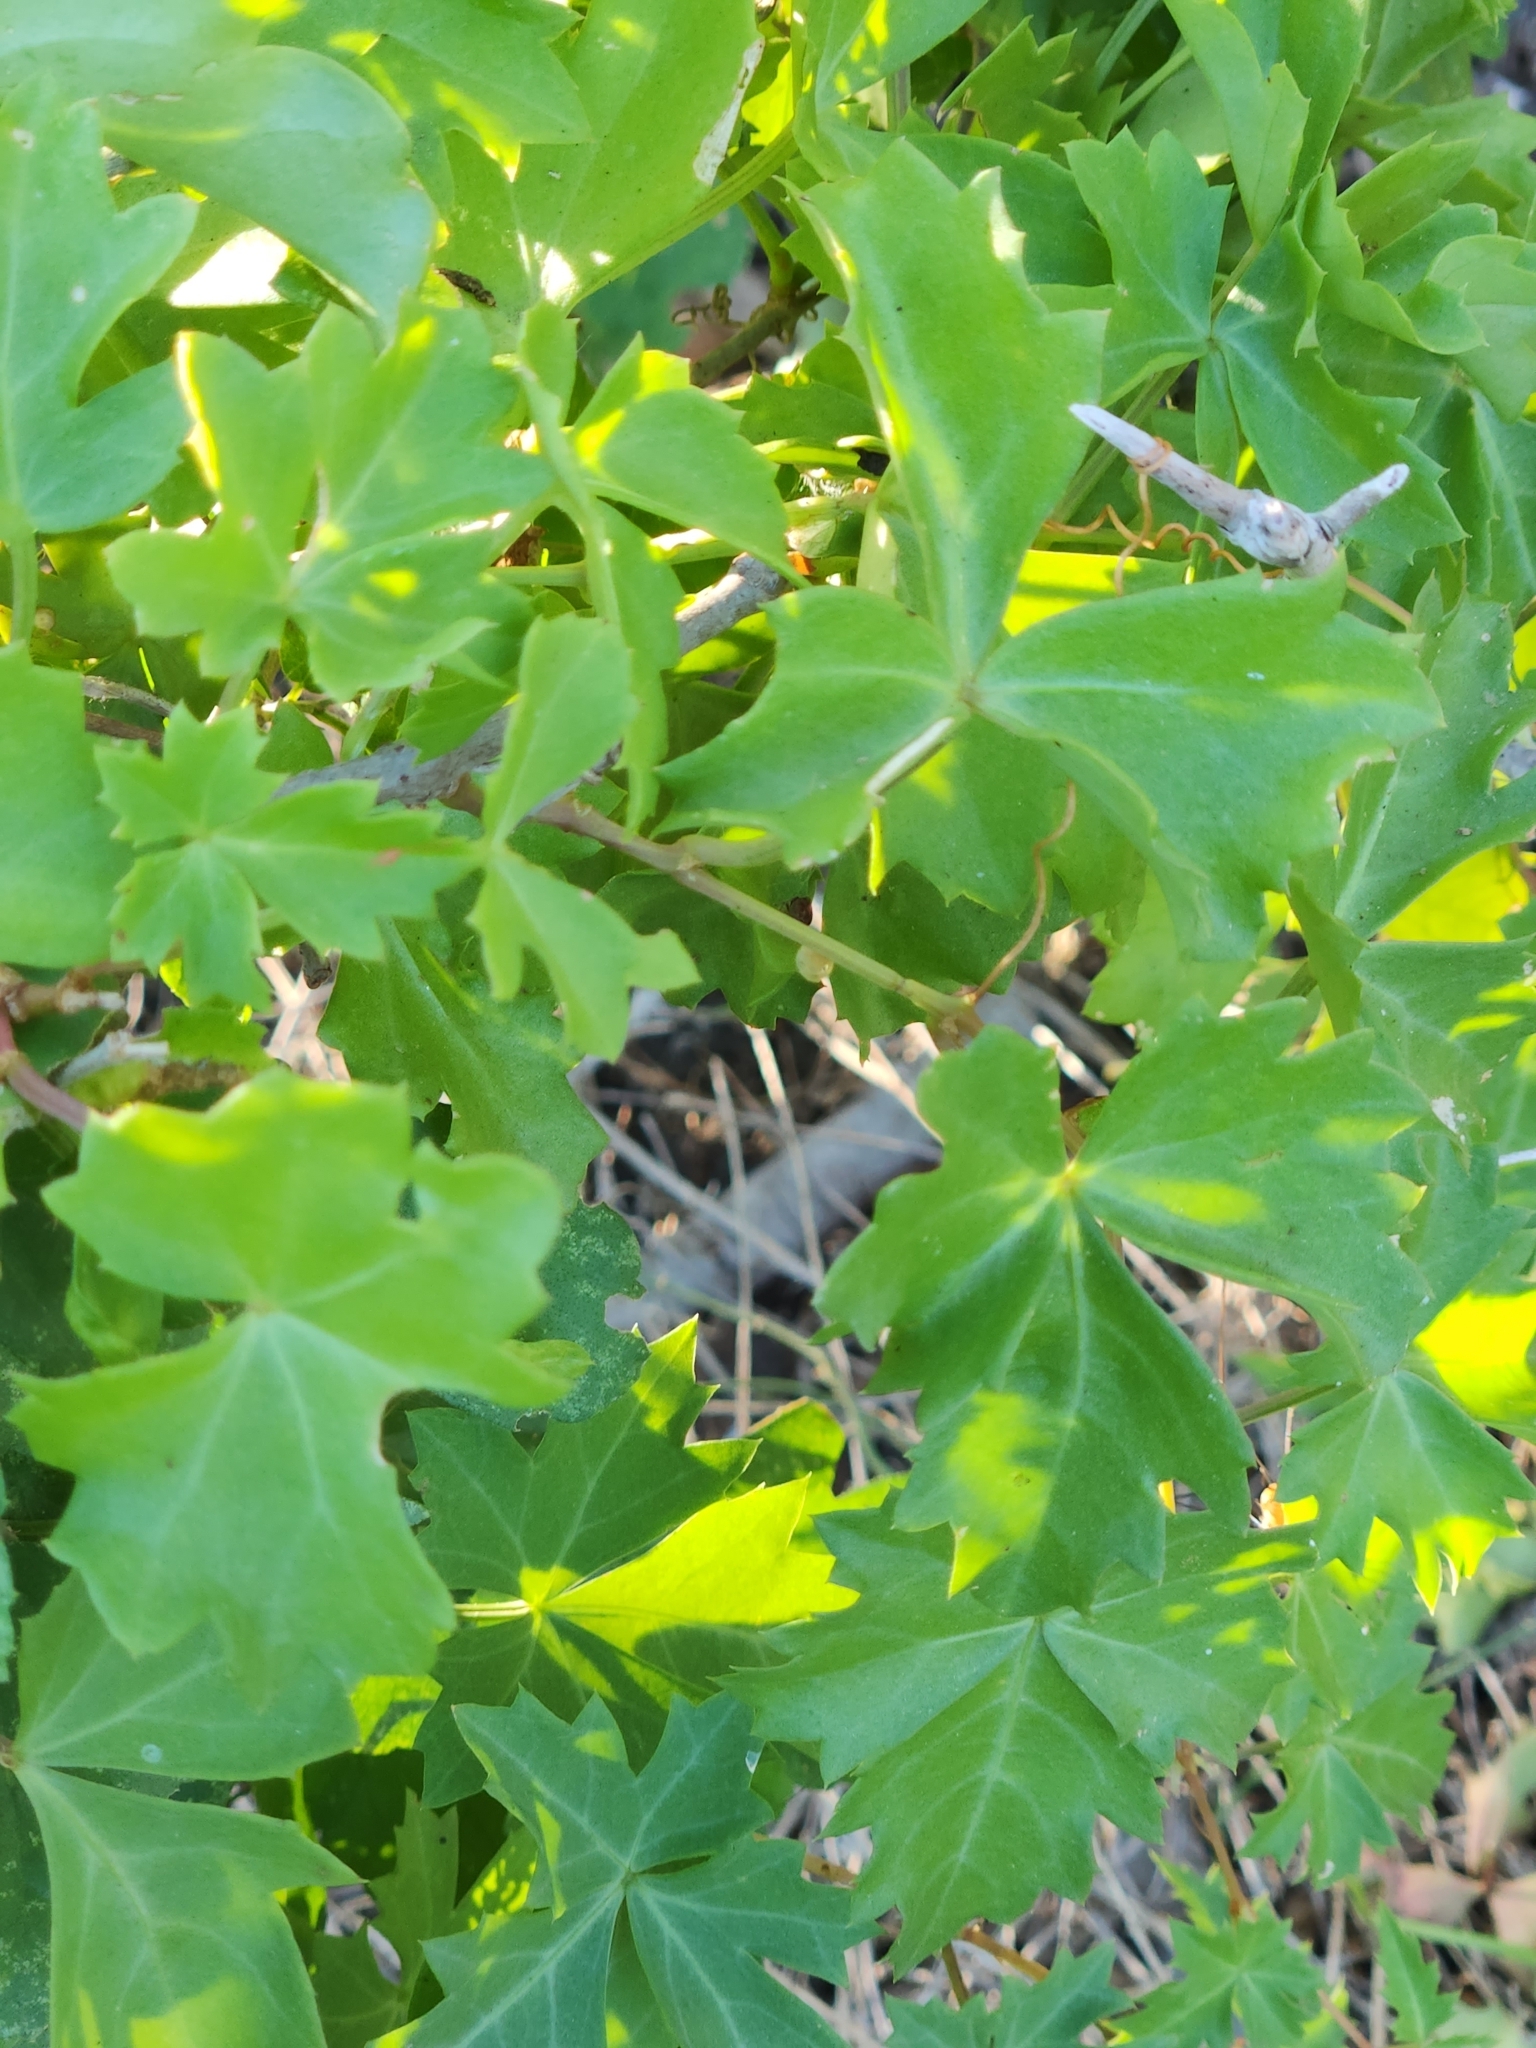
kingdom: Plantae
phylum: Tracheophyta
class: Magnoliopsida
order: Vitales
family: Vitaceae
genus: Cissus
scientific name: Cissus trifoliata
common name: Vine-sorrel
